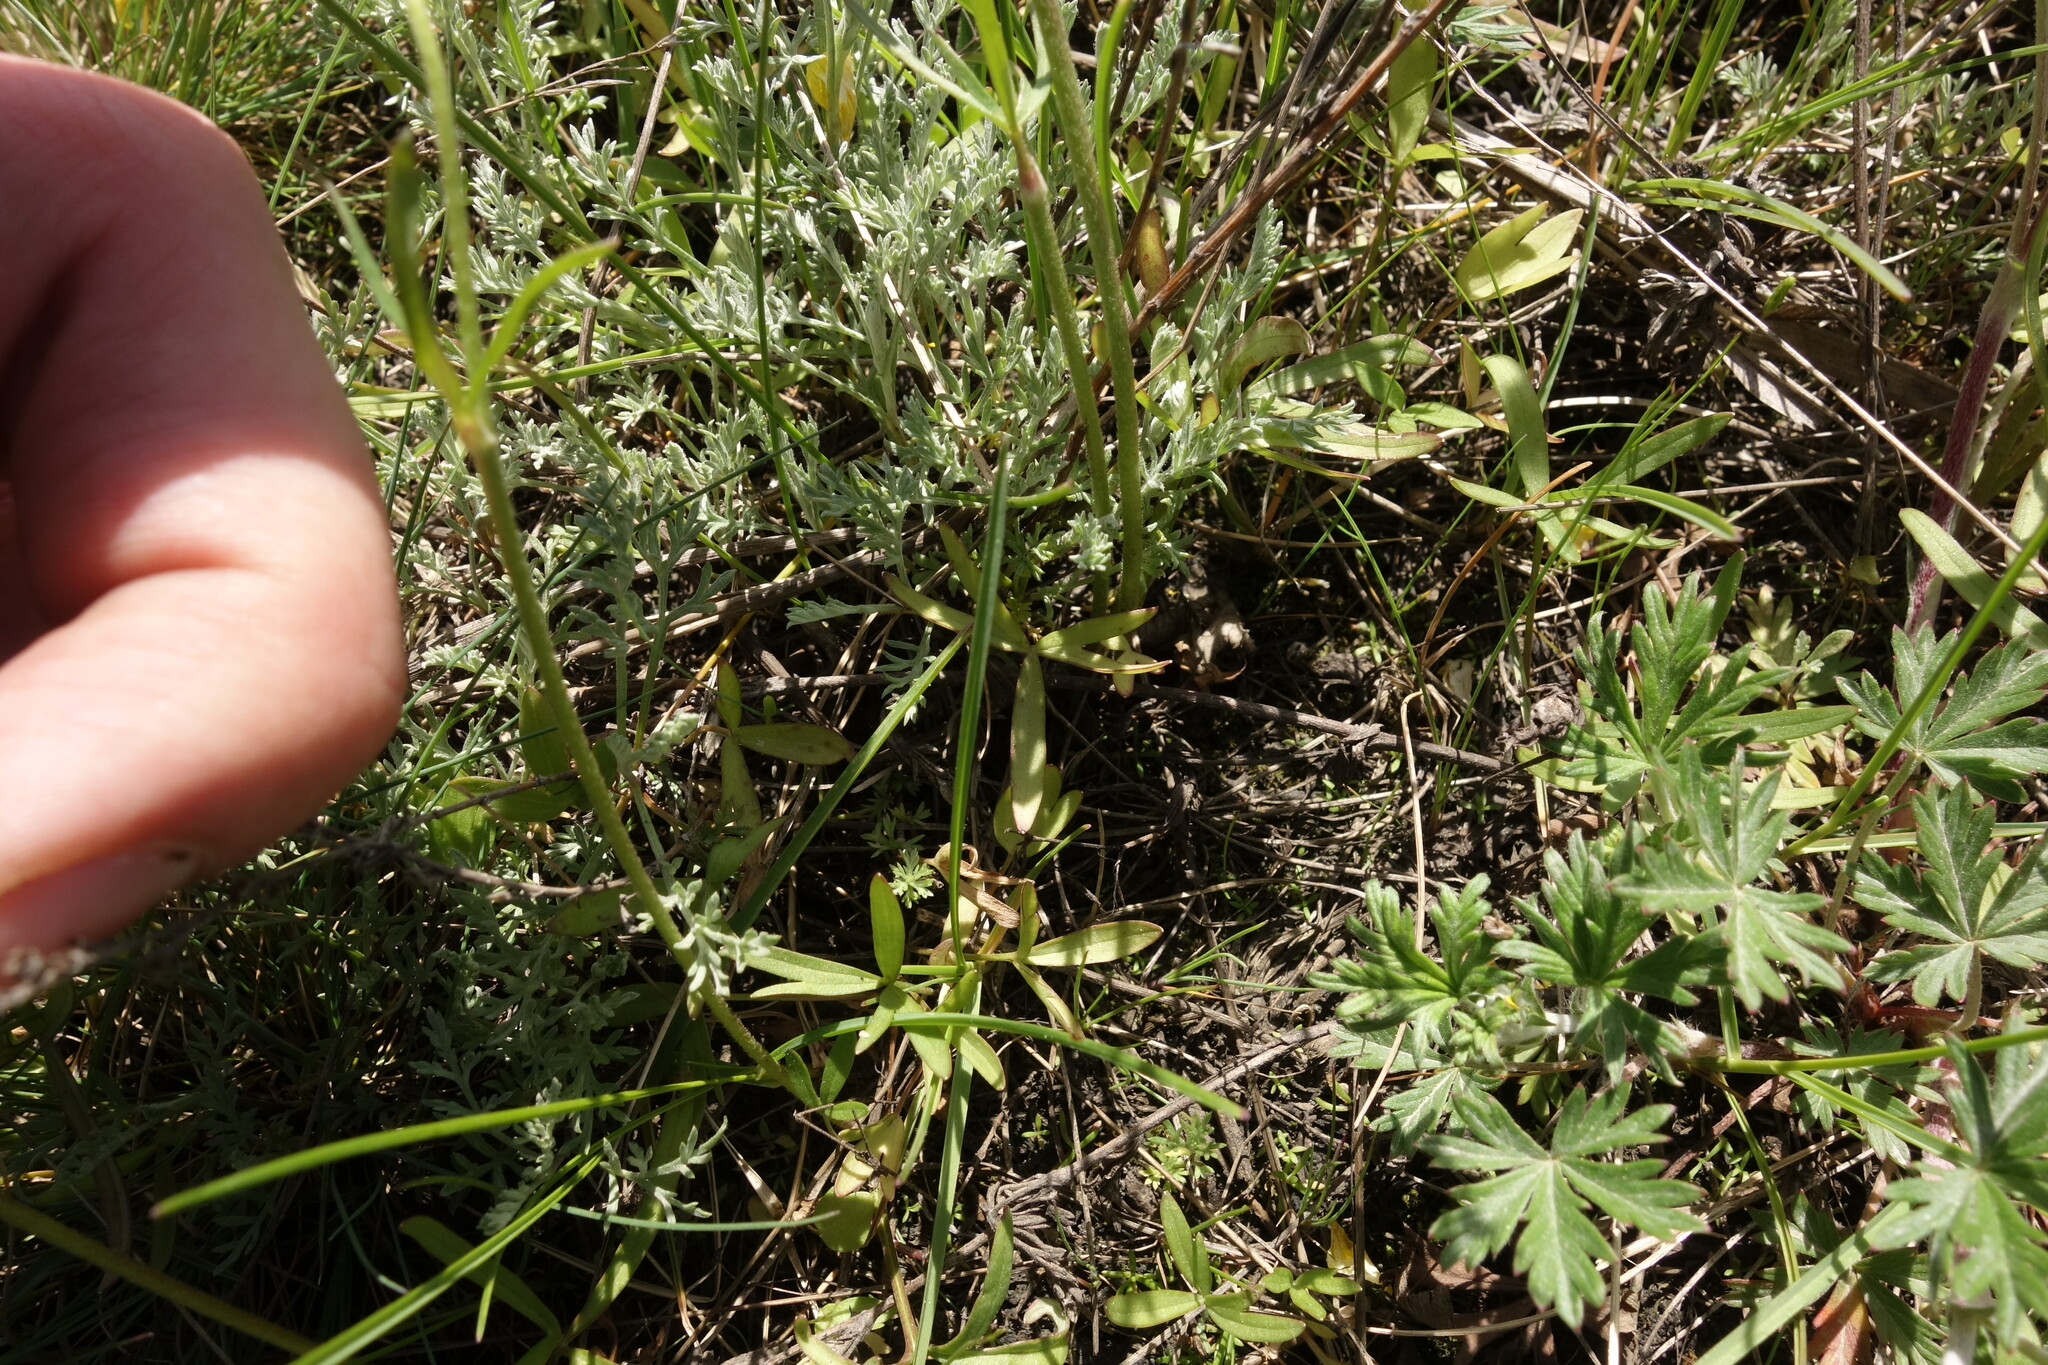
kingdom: Plantae
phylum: Tracheophyta
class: Magnoliopsida
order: Ranunculales
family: Ranunculaceae
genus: Ranunculus
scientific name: Ranunculus pedatus
